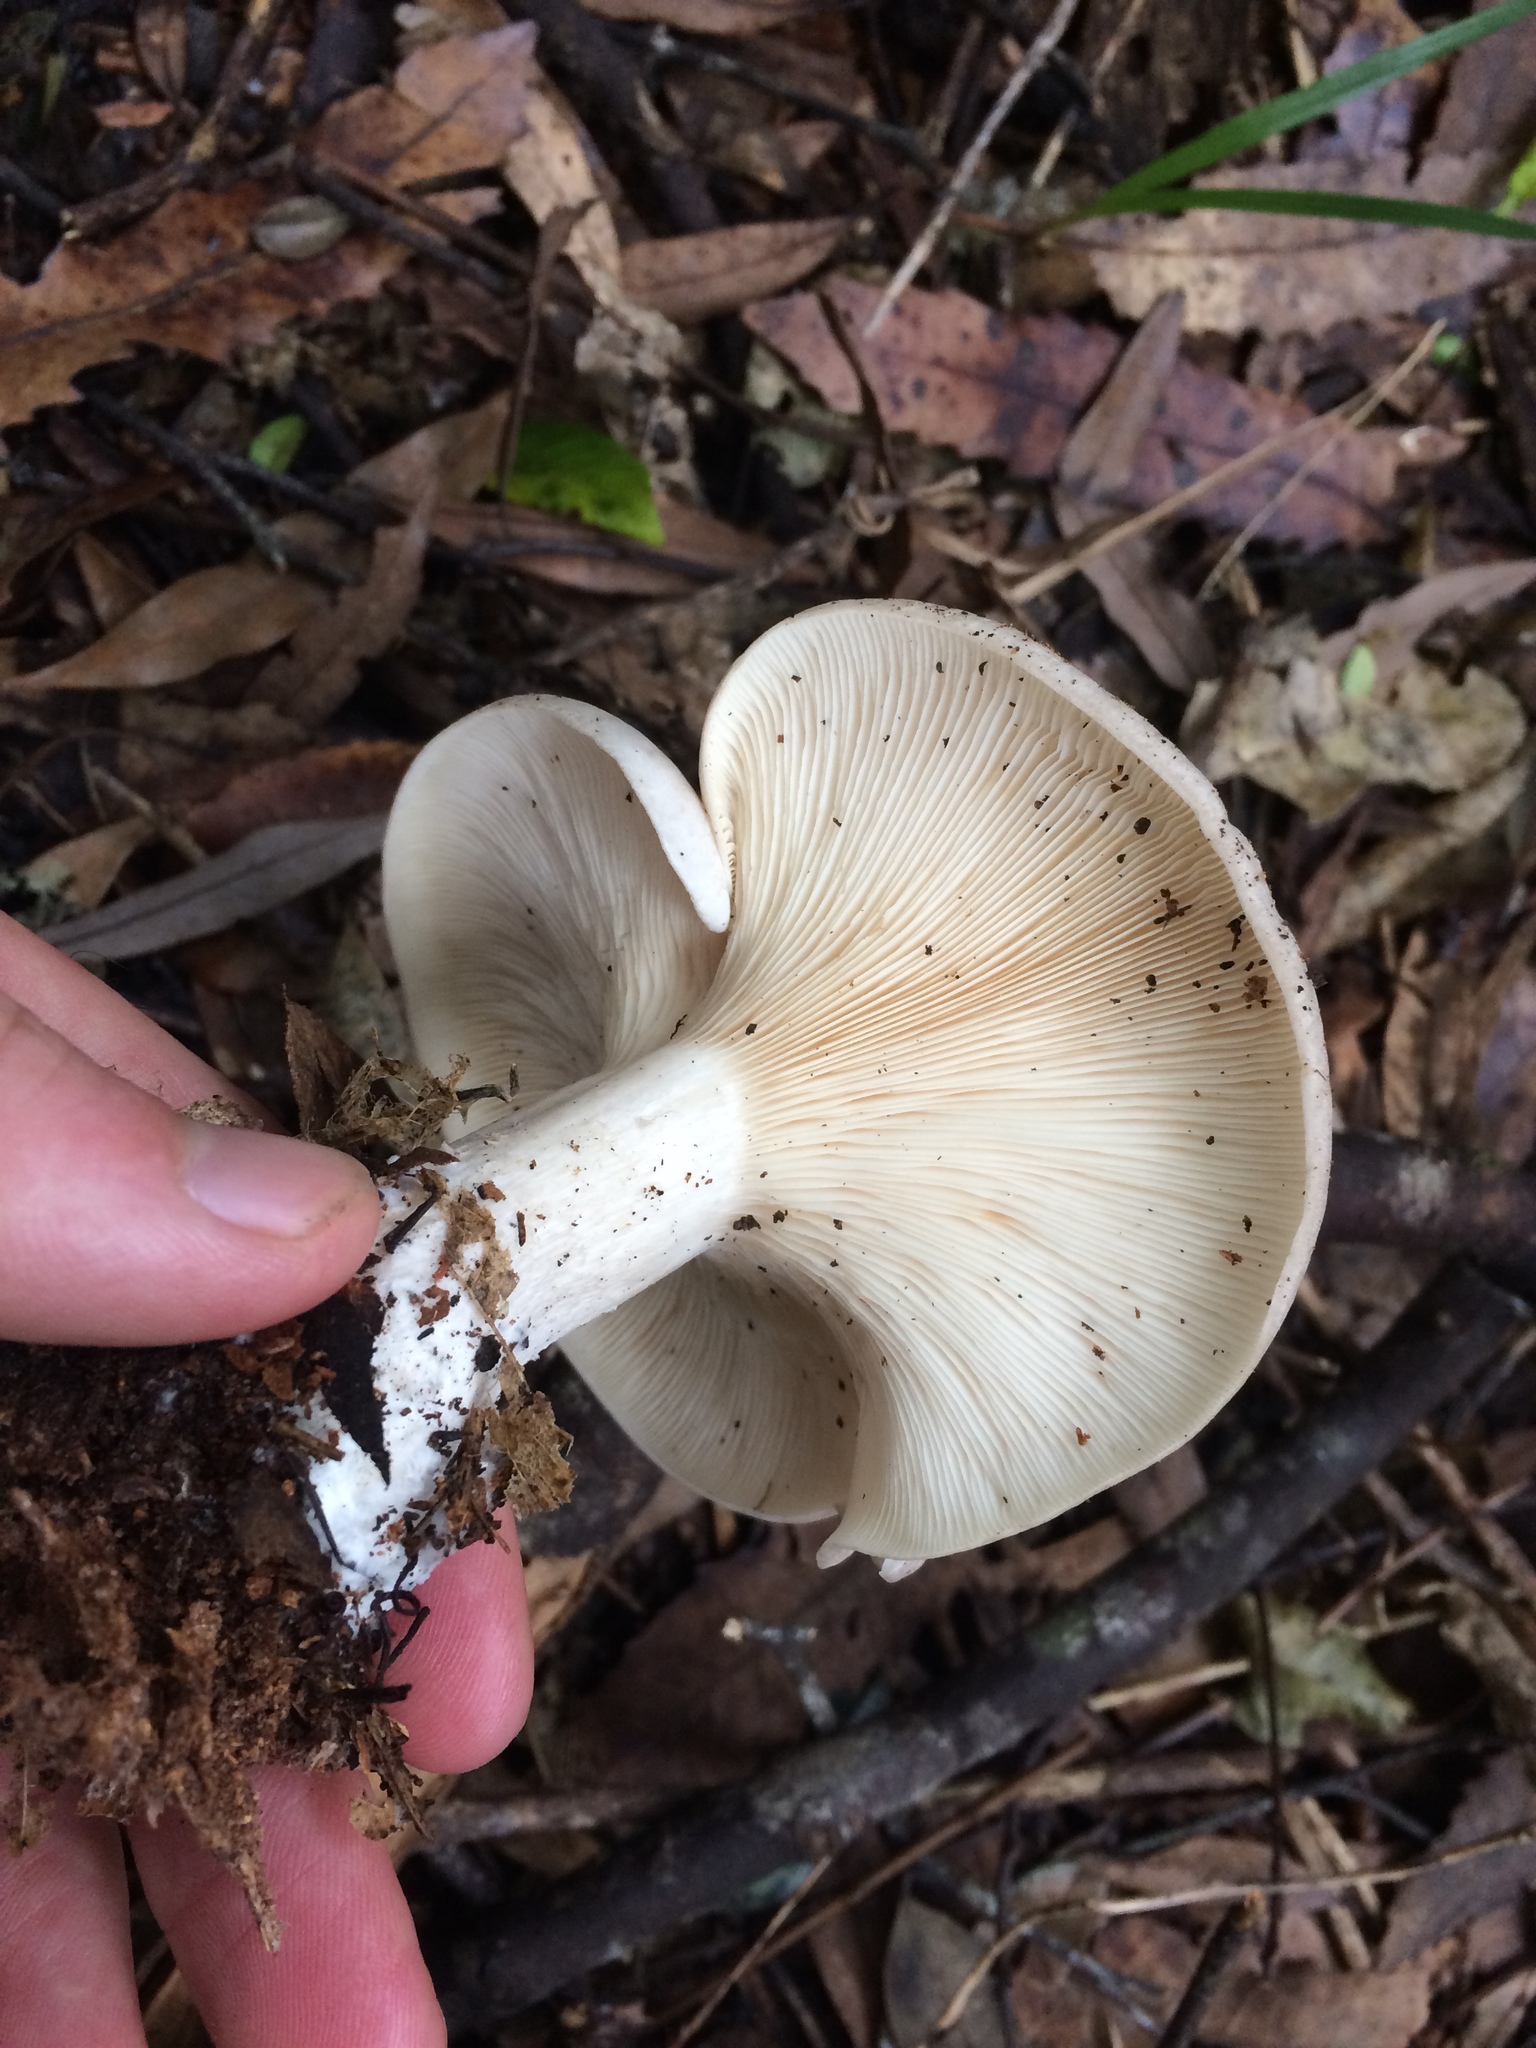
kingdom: Fungi
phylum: Basidiomycota
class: Agaricomycetes
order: Agaricales
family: Tricholomataceae
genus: Clitocybe
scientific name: Clitocybe nebularis
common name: Clouded agaric
